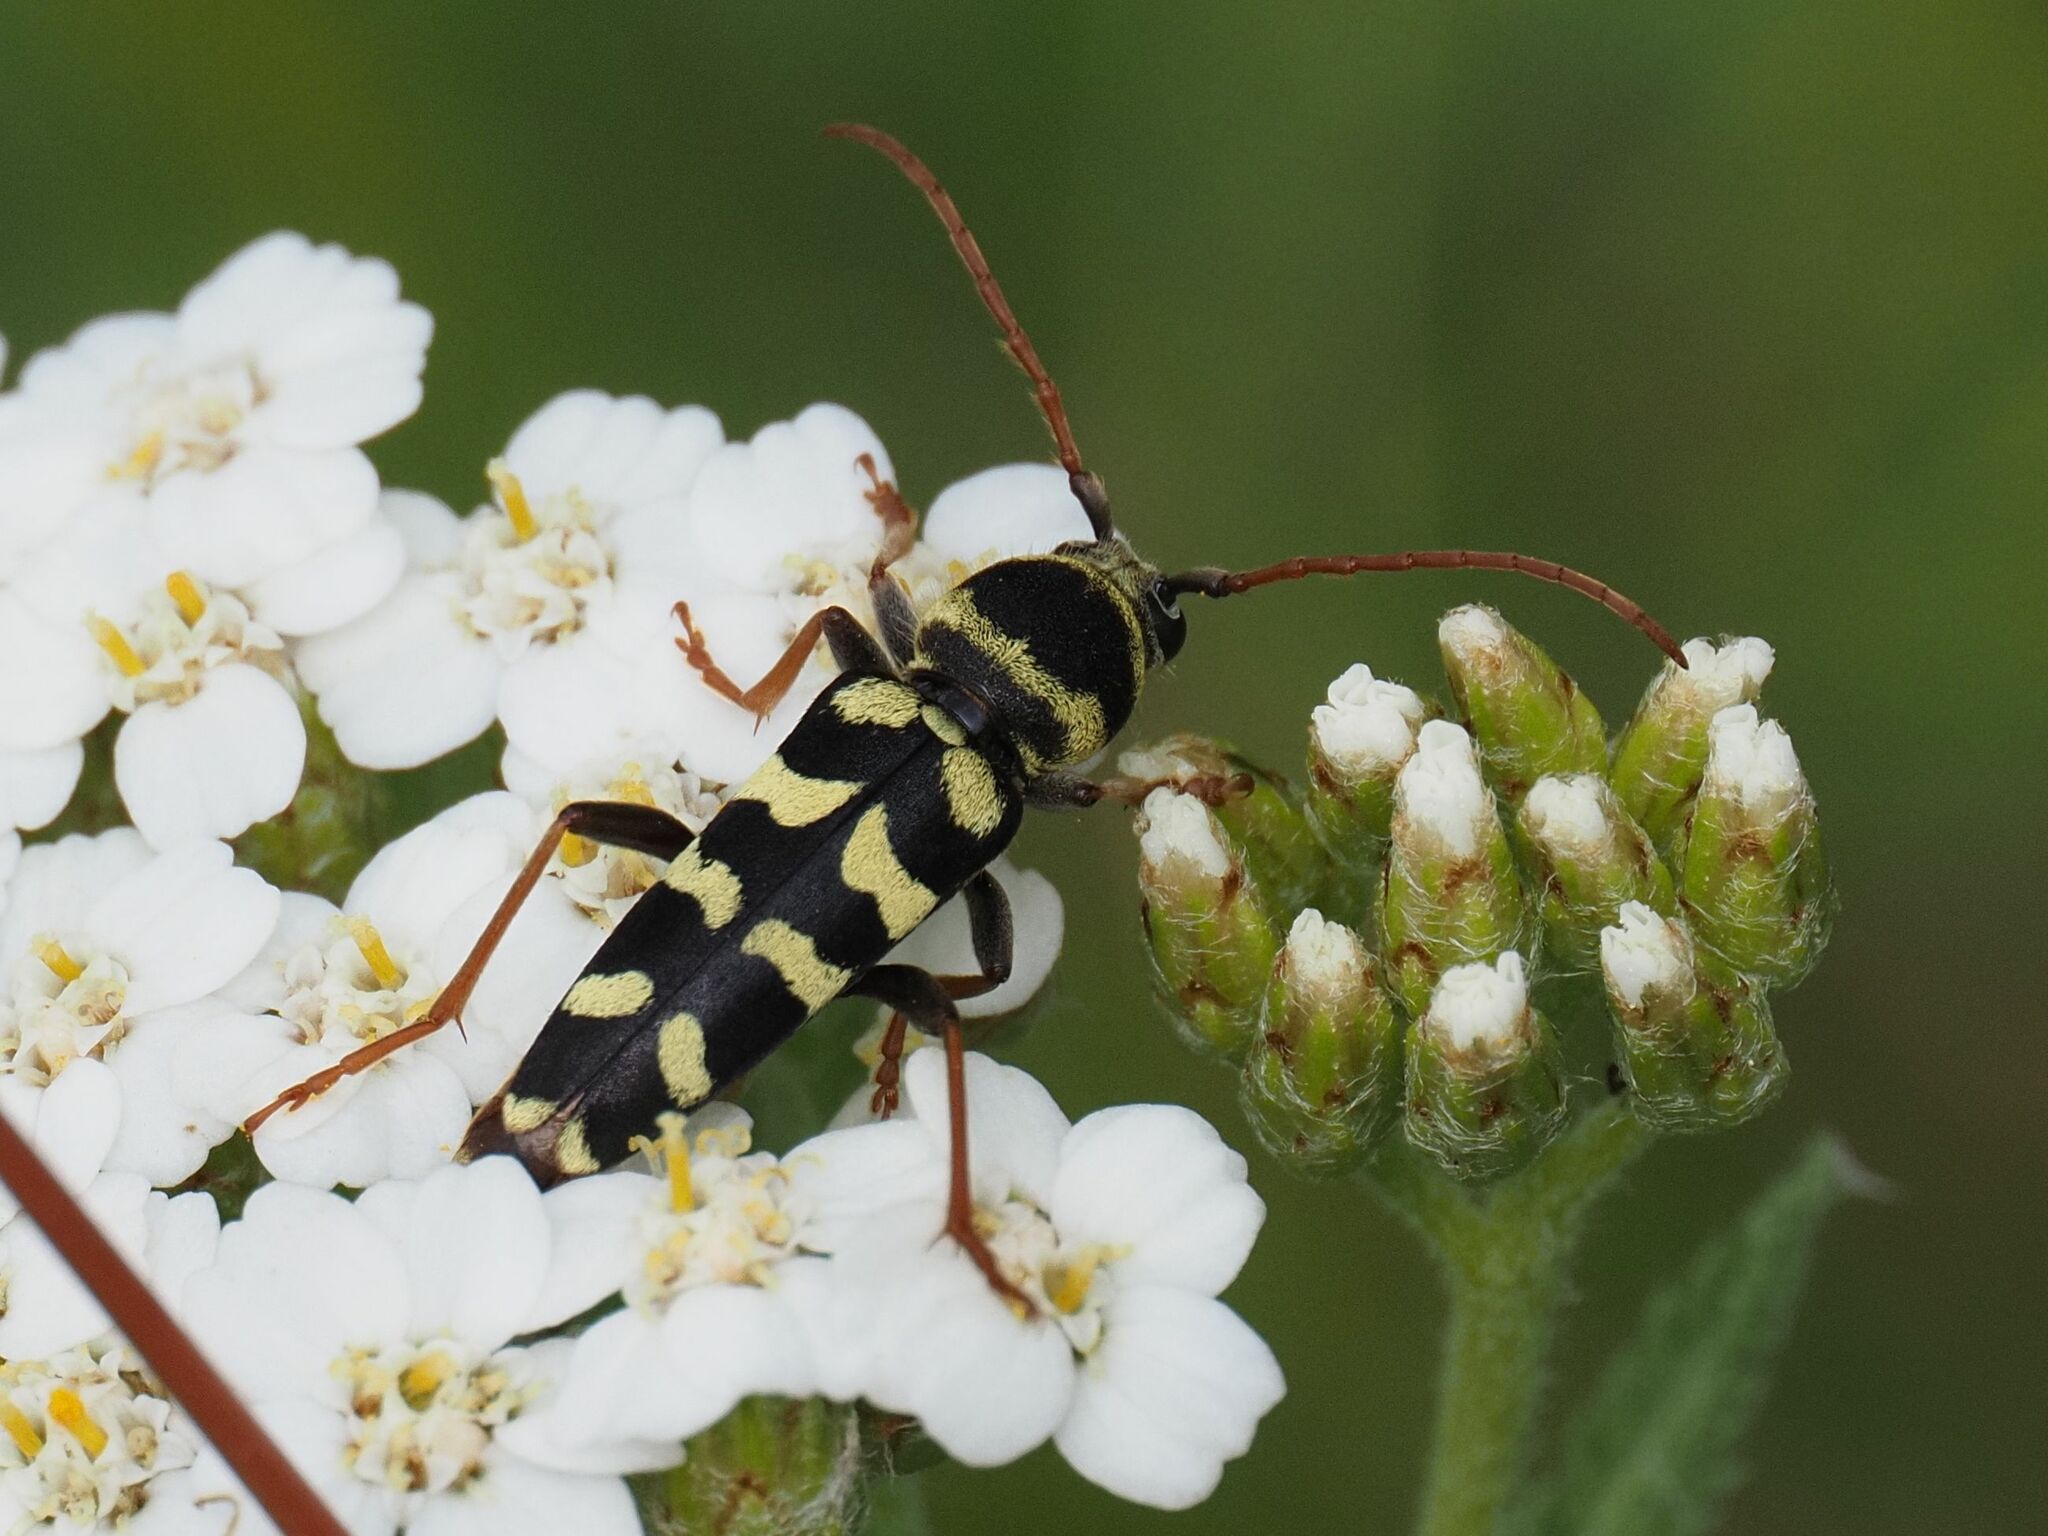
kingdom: Animalia
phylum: Arthropoda
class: Insecta
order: Coleoptera
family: Cerambycidae
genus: Plagionotus
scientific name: Plagionotus floralis
